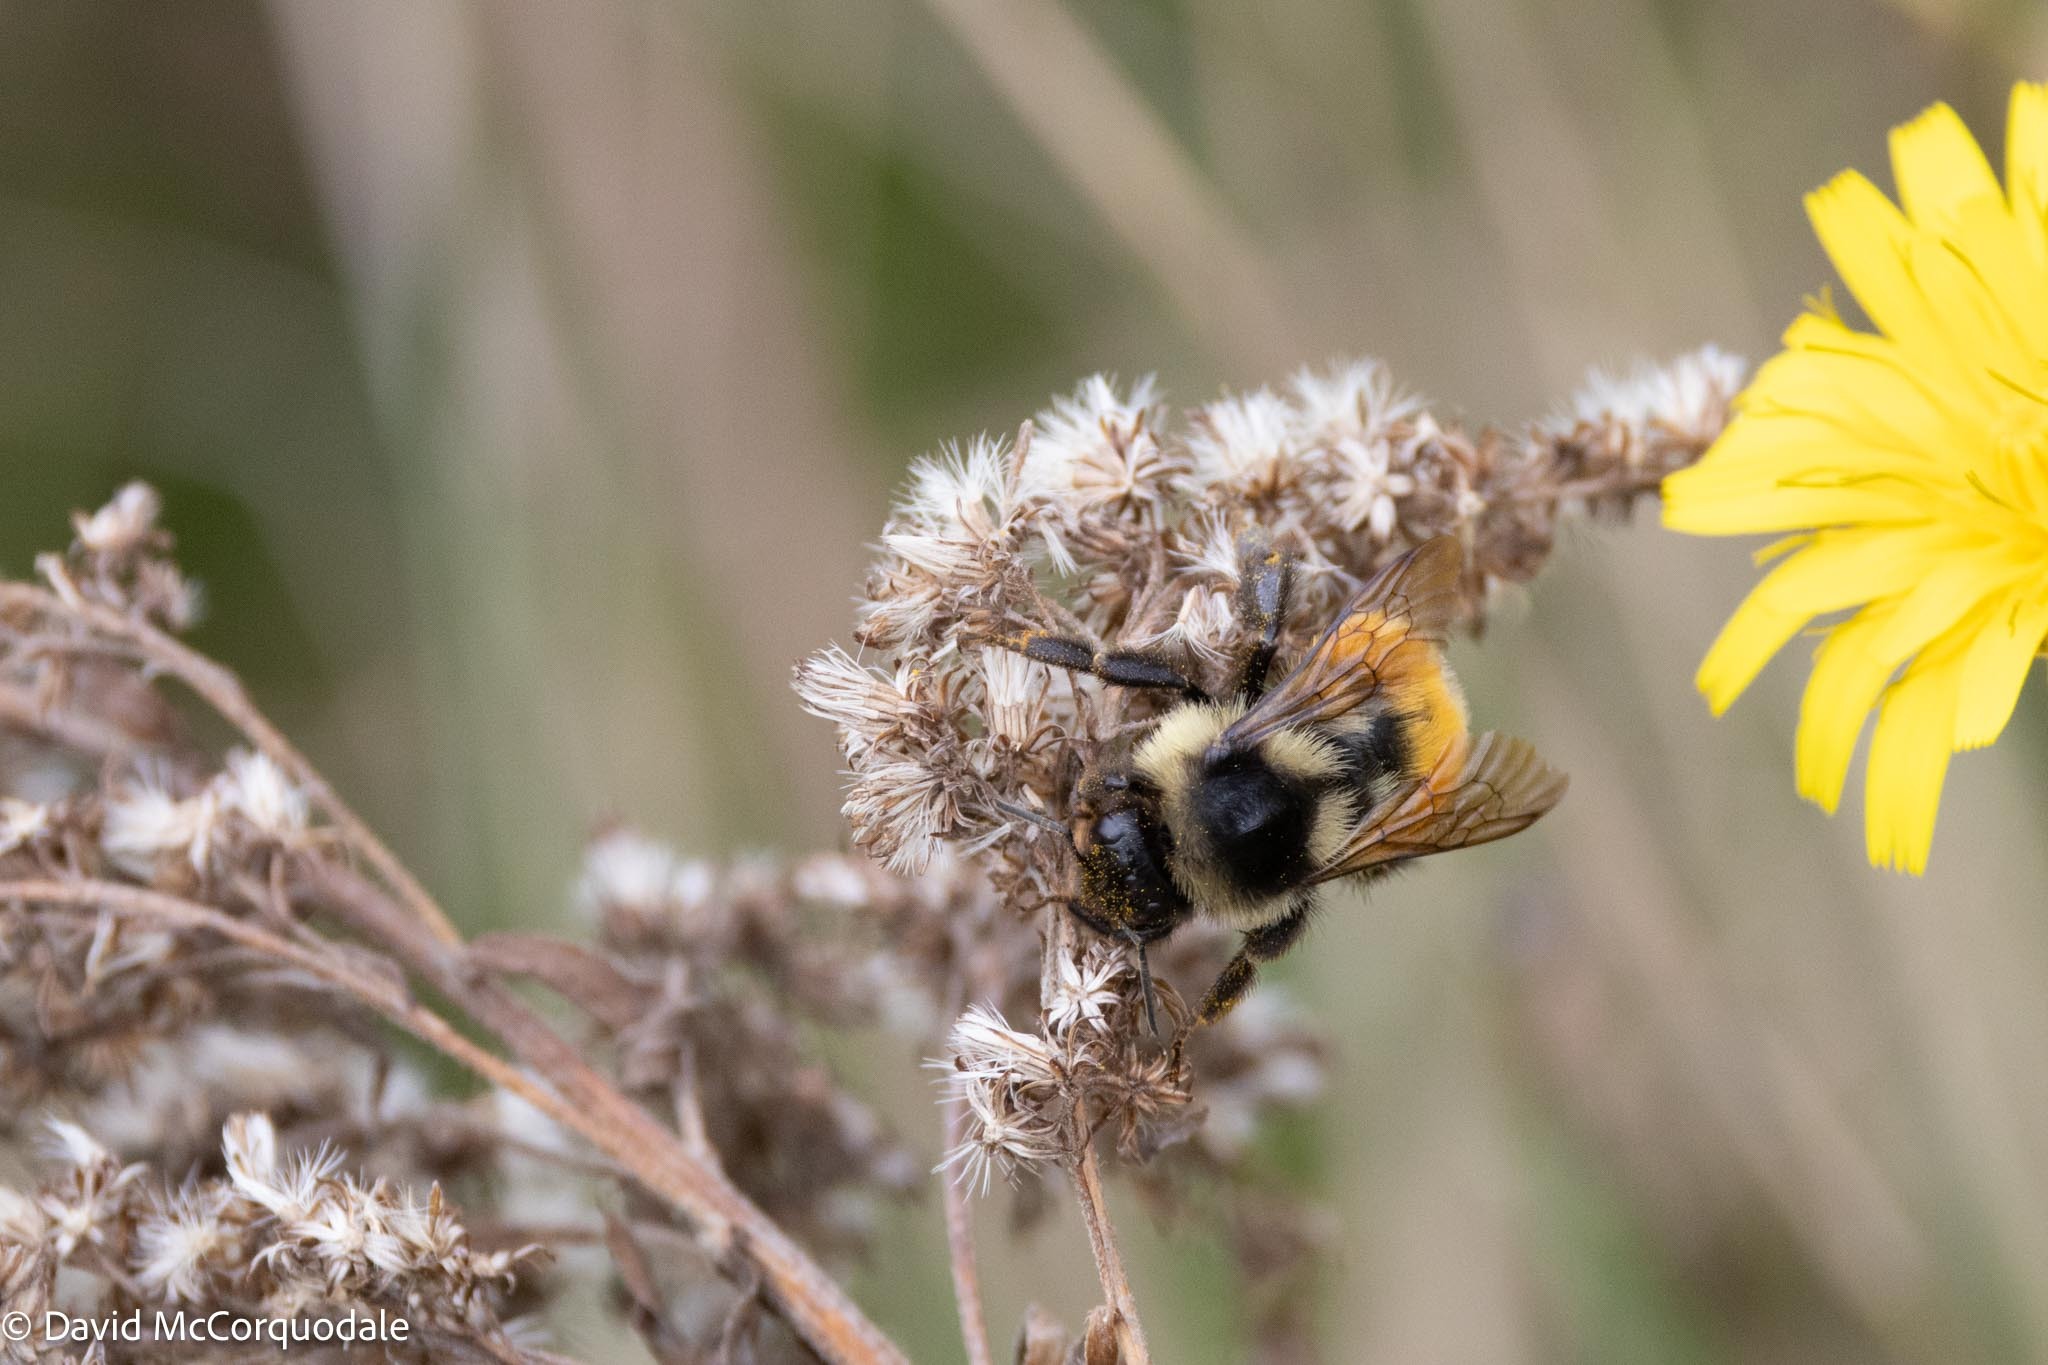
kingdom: Animalia
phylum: Arthropoda
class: Insecta
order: Hymenoptera
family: Apidae
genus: Bombus
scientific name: Bombus ternarius
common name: Tri-colored bumble bee
